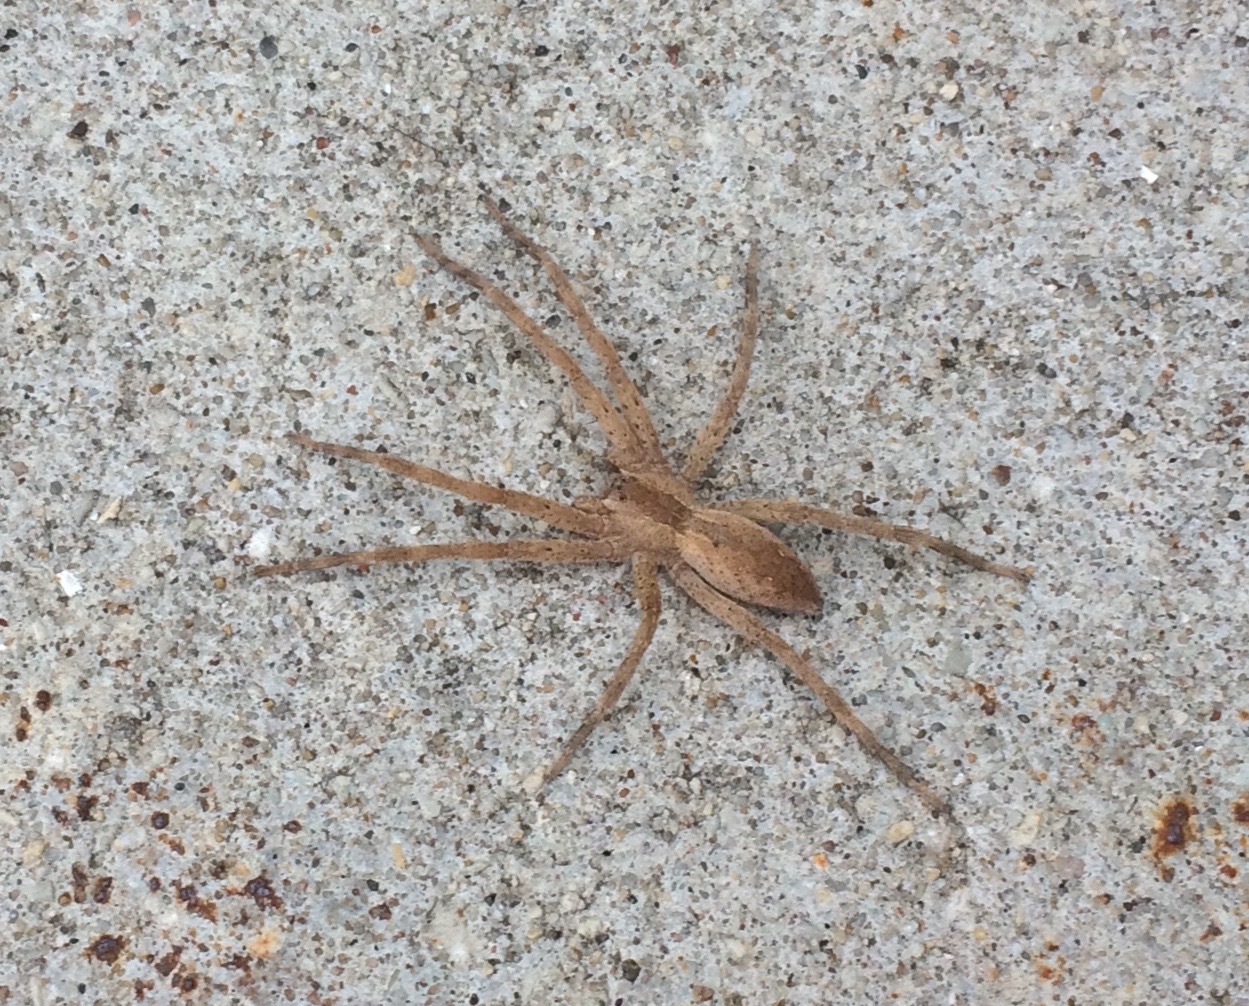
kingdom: Animalia
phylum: Arthropoda
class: Arachnida
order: Araneae
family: Pisauridae
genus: Pisaurina
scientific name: Pisaurina mira
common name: American nursery web spider
